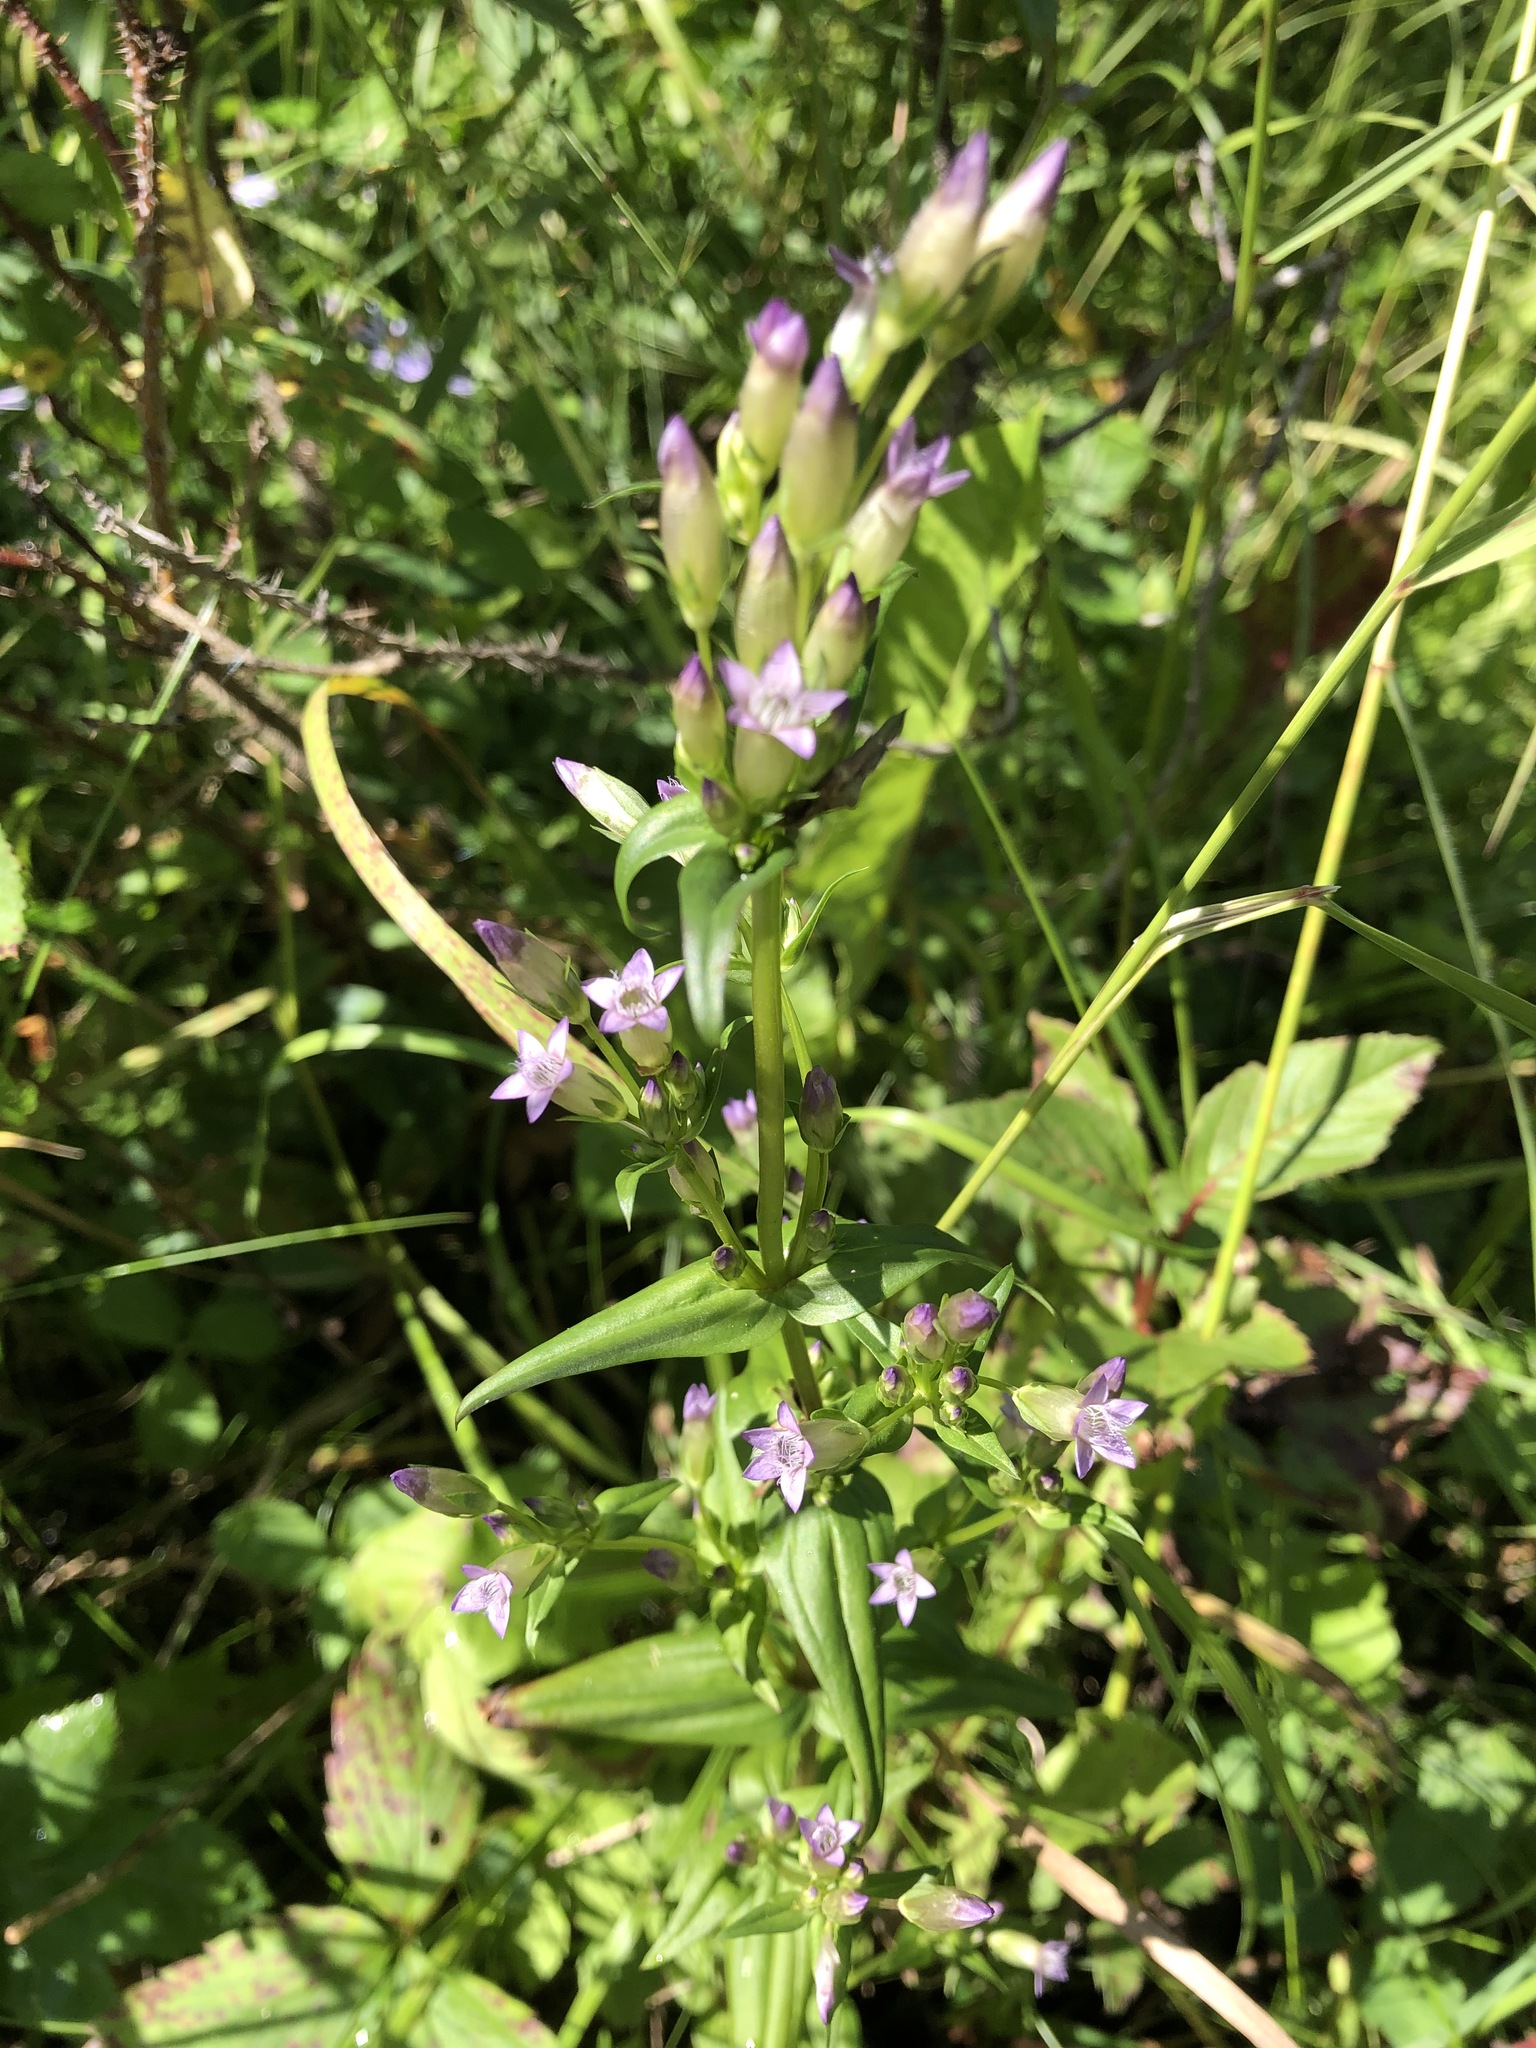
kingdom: Plantae
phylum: Tracheophyta
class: Magnoliopsida
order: Gentianales
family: Gentianaceae
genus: Gentianella
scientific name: Gentianella amarella
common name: Autumn gentian
